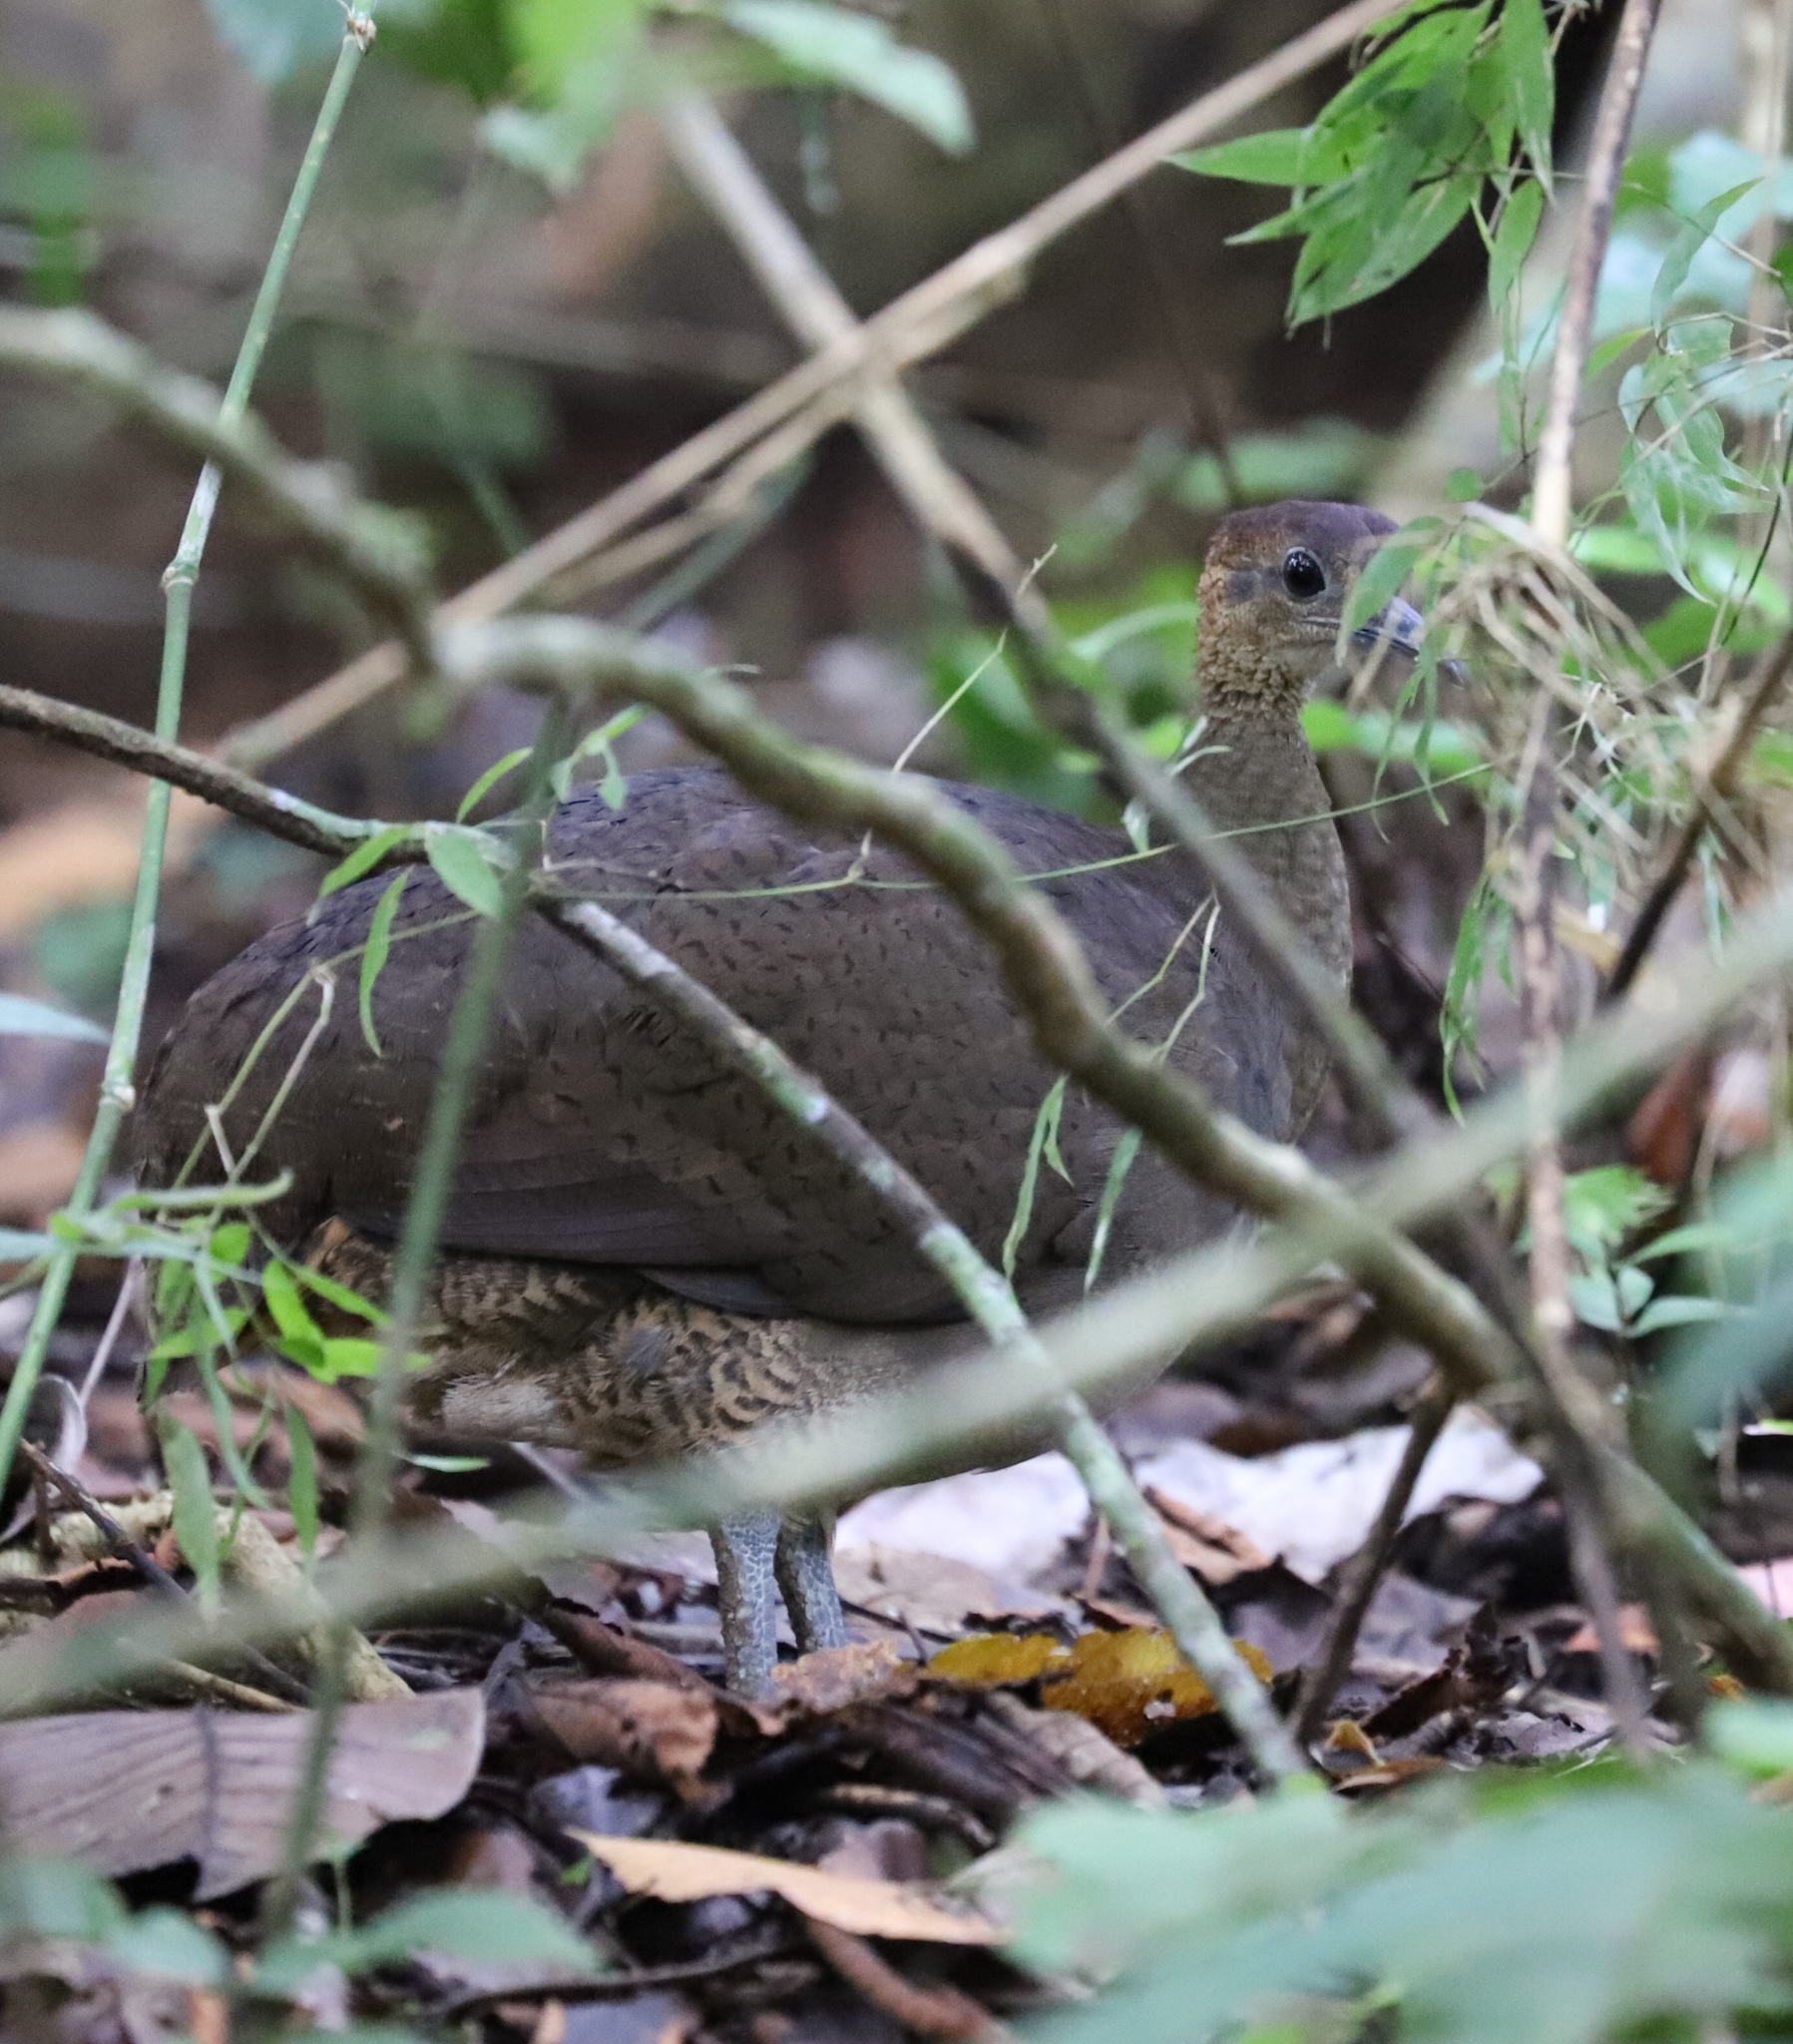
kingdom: Animalia
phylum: Chordata
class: Aves
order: Tinamiformes
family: Tinamidae
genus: Tinamus
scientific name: Tinamus major
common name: Great tinamou
